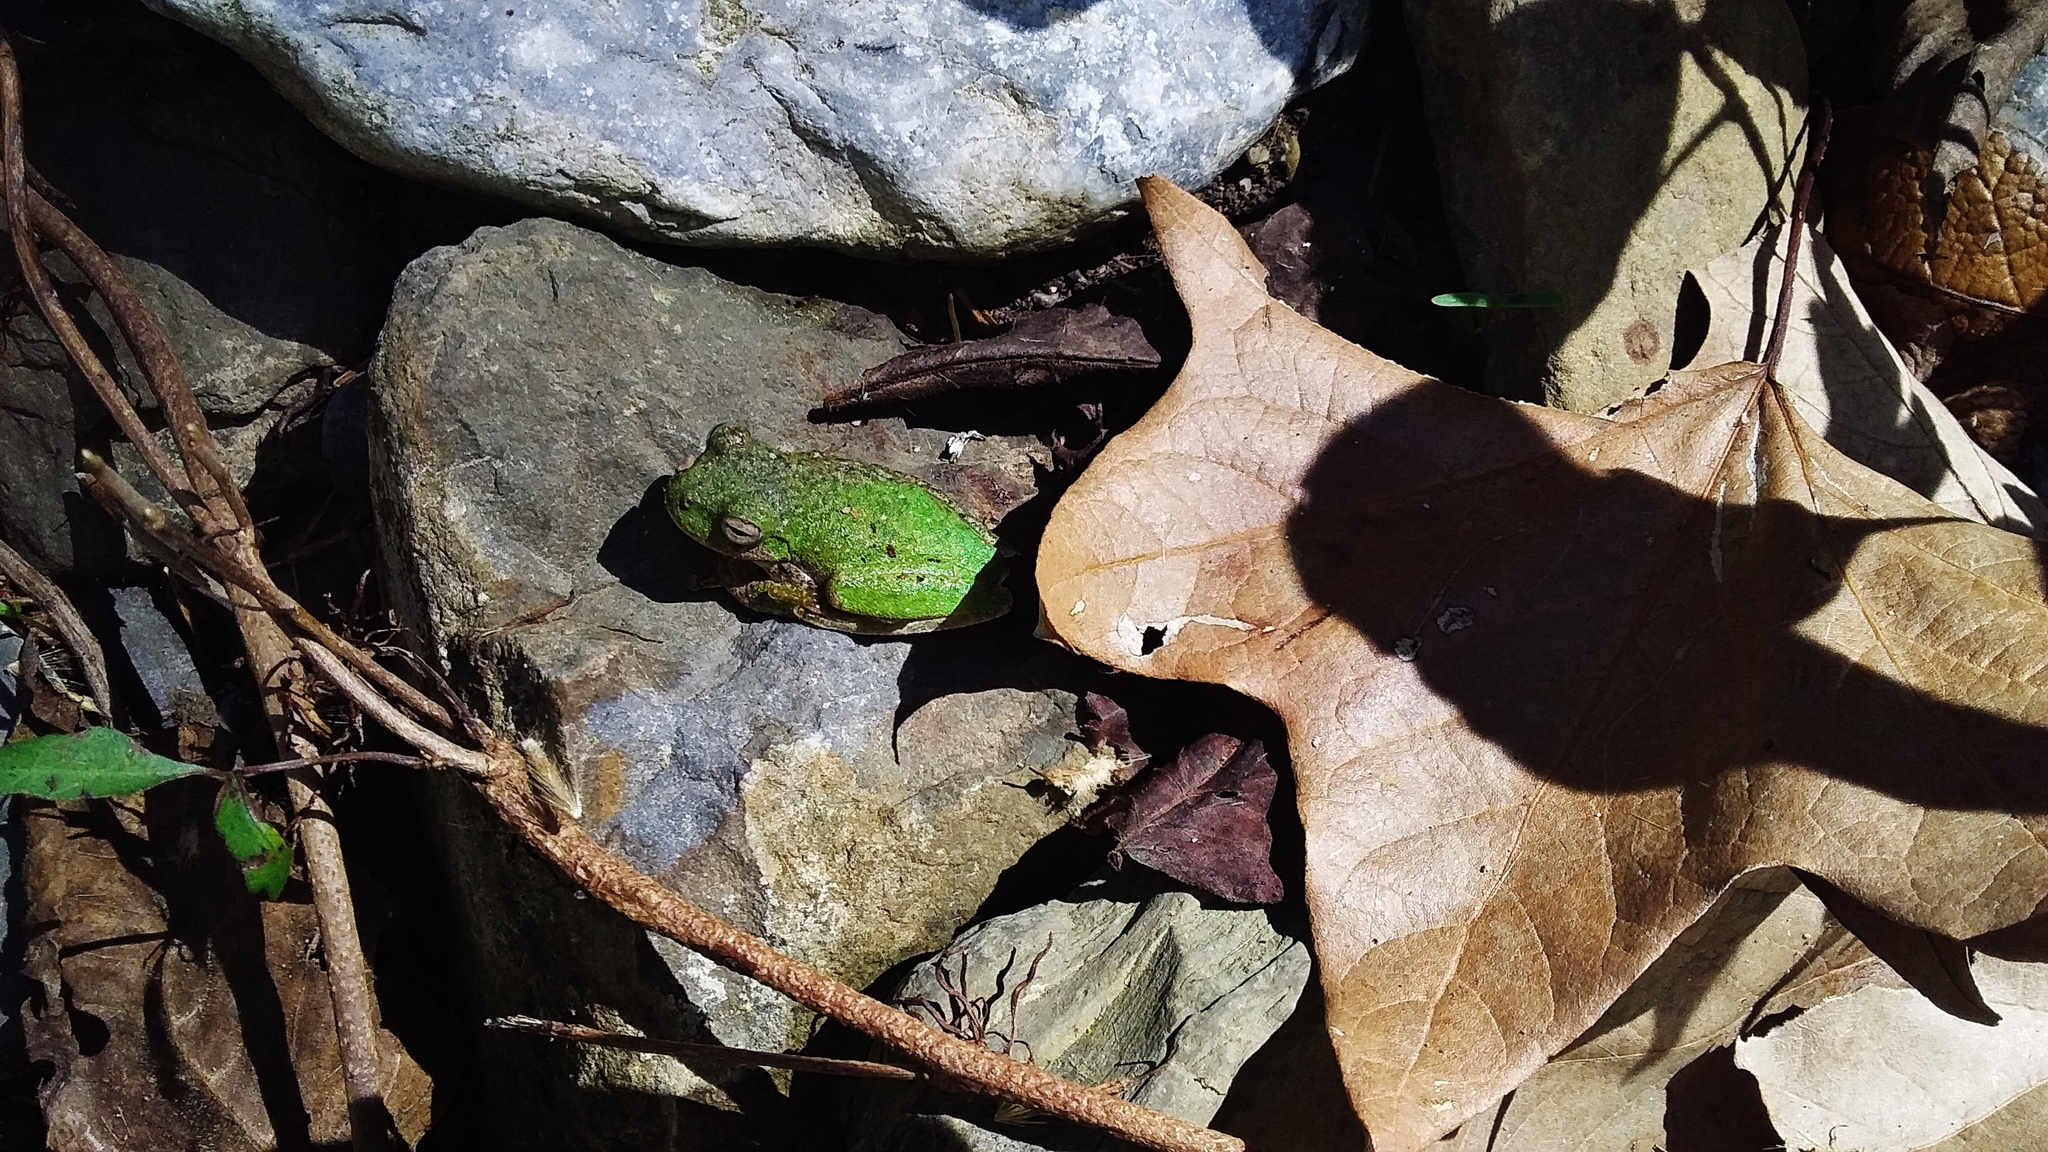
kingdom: Animalia
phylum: Chordata
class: Amphibia
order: Anura
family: Hylidae
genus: Rheohyla
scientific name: Rheohyla miotympanum
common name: Small-eard hyla
